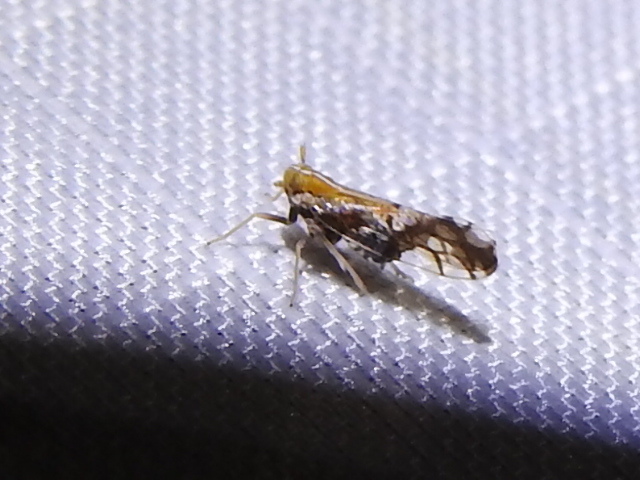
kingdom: Animalia
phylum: Arthropoda
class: Insecta
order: Hemiptera
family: Delphacidae
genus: Liburniella
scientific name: Liburniella ornata
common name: Ornate planthopper
